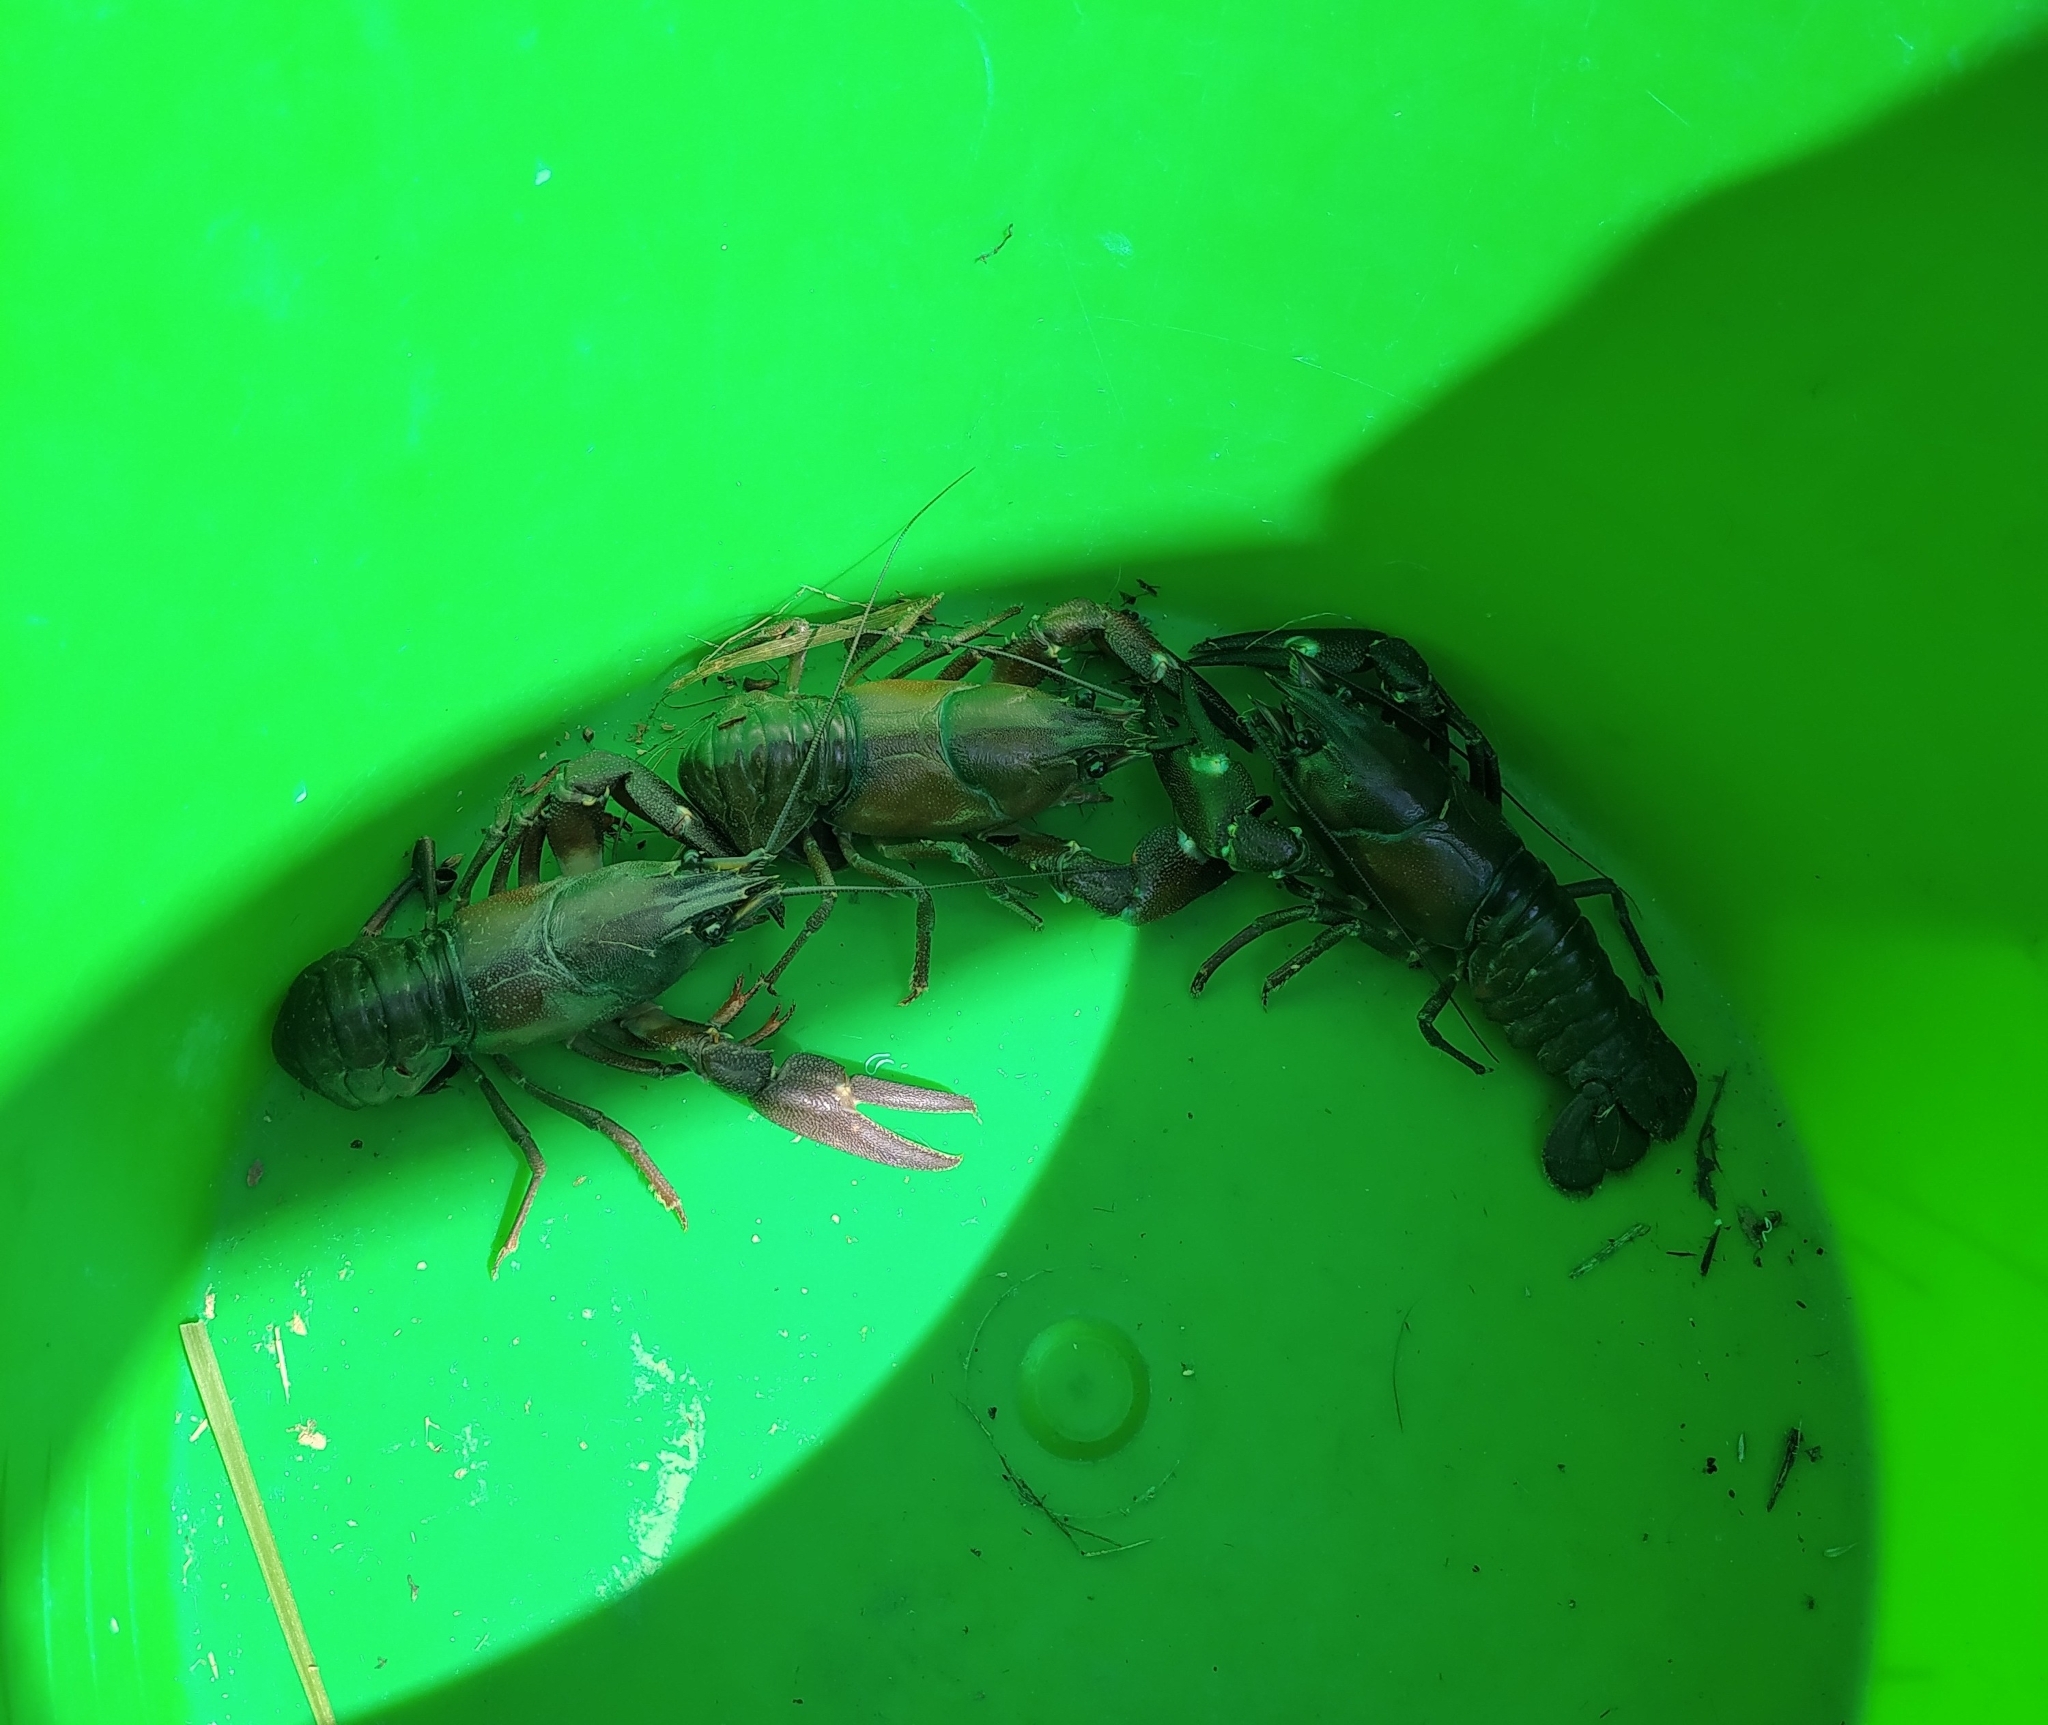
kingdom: Animalia
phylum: Arthropoda
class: Malacostraca
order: Decapoda
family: Astacidae
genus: Pacifastacus
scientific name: Pacifastacus leniusculus
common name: Signal crayfish
